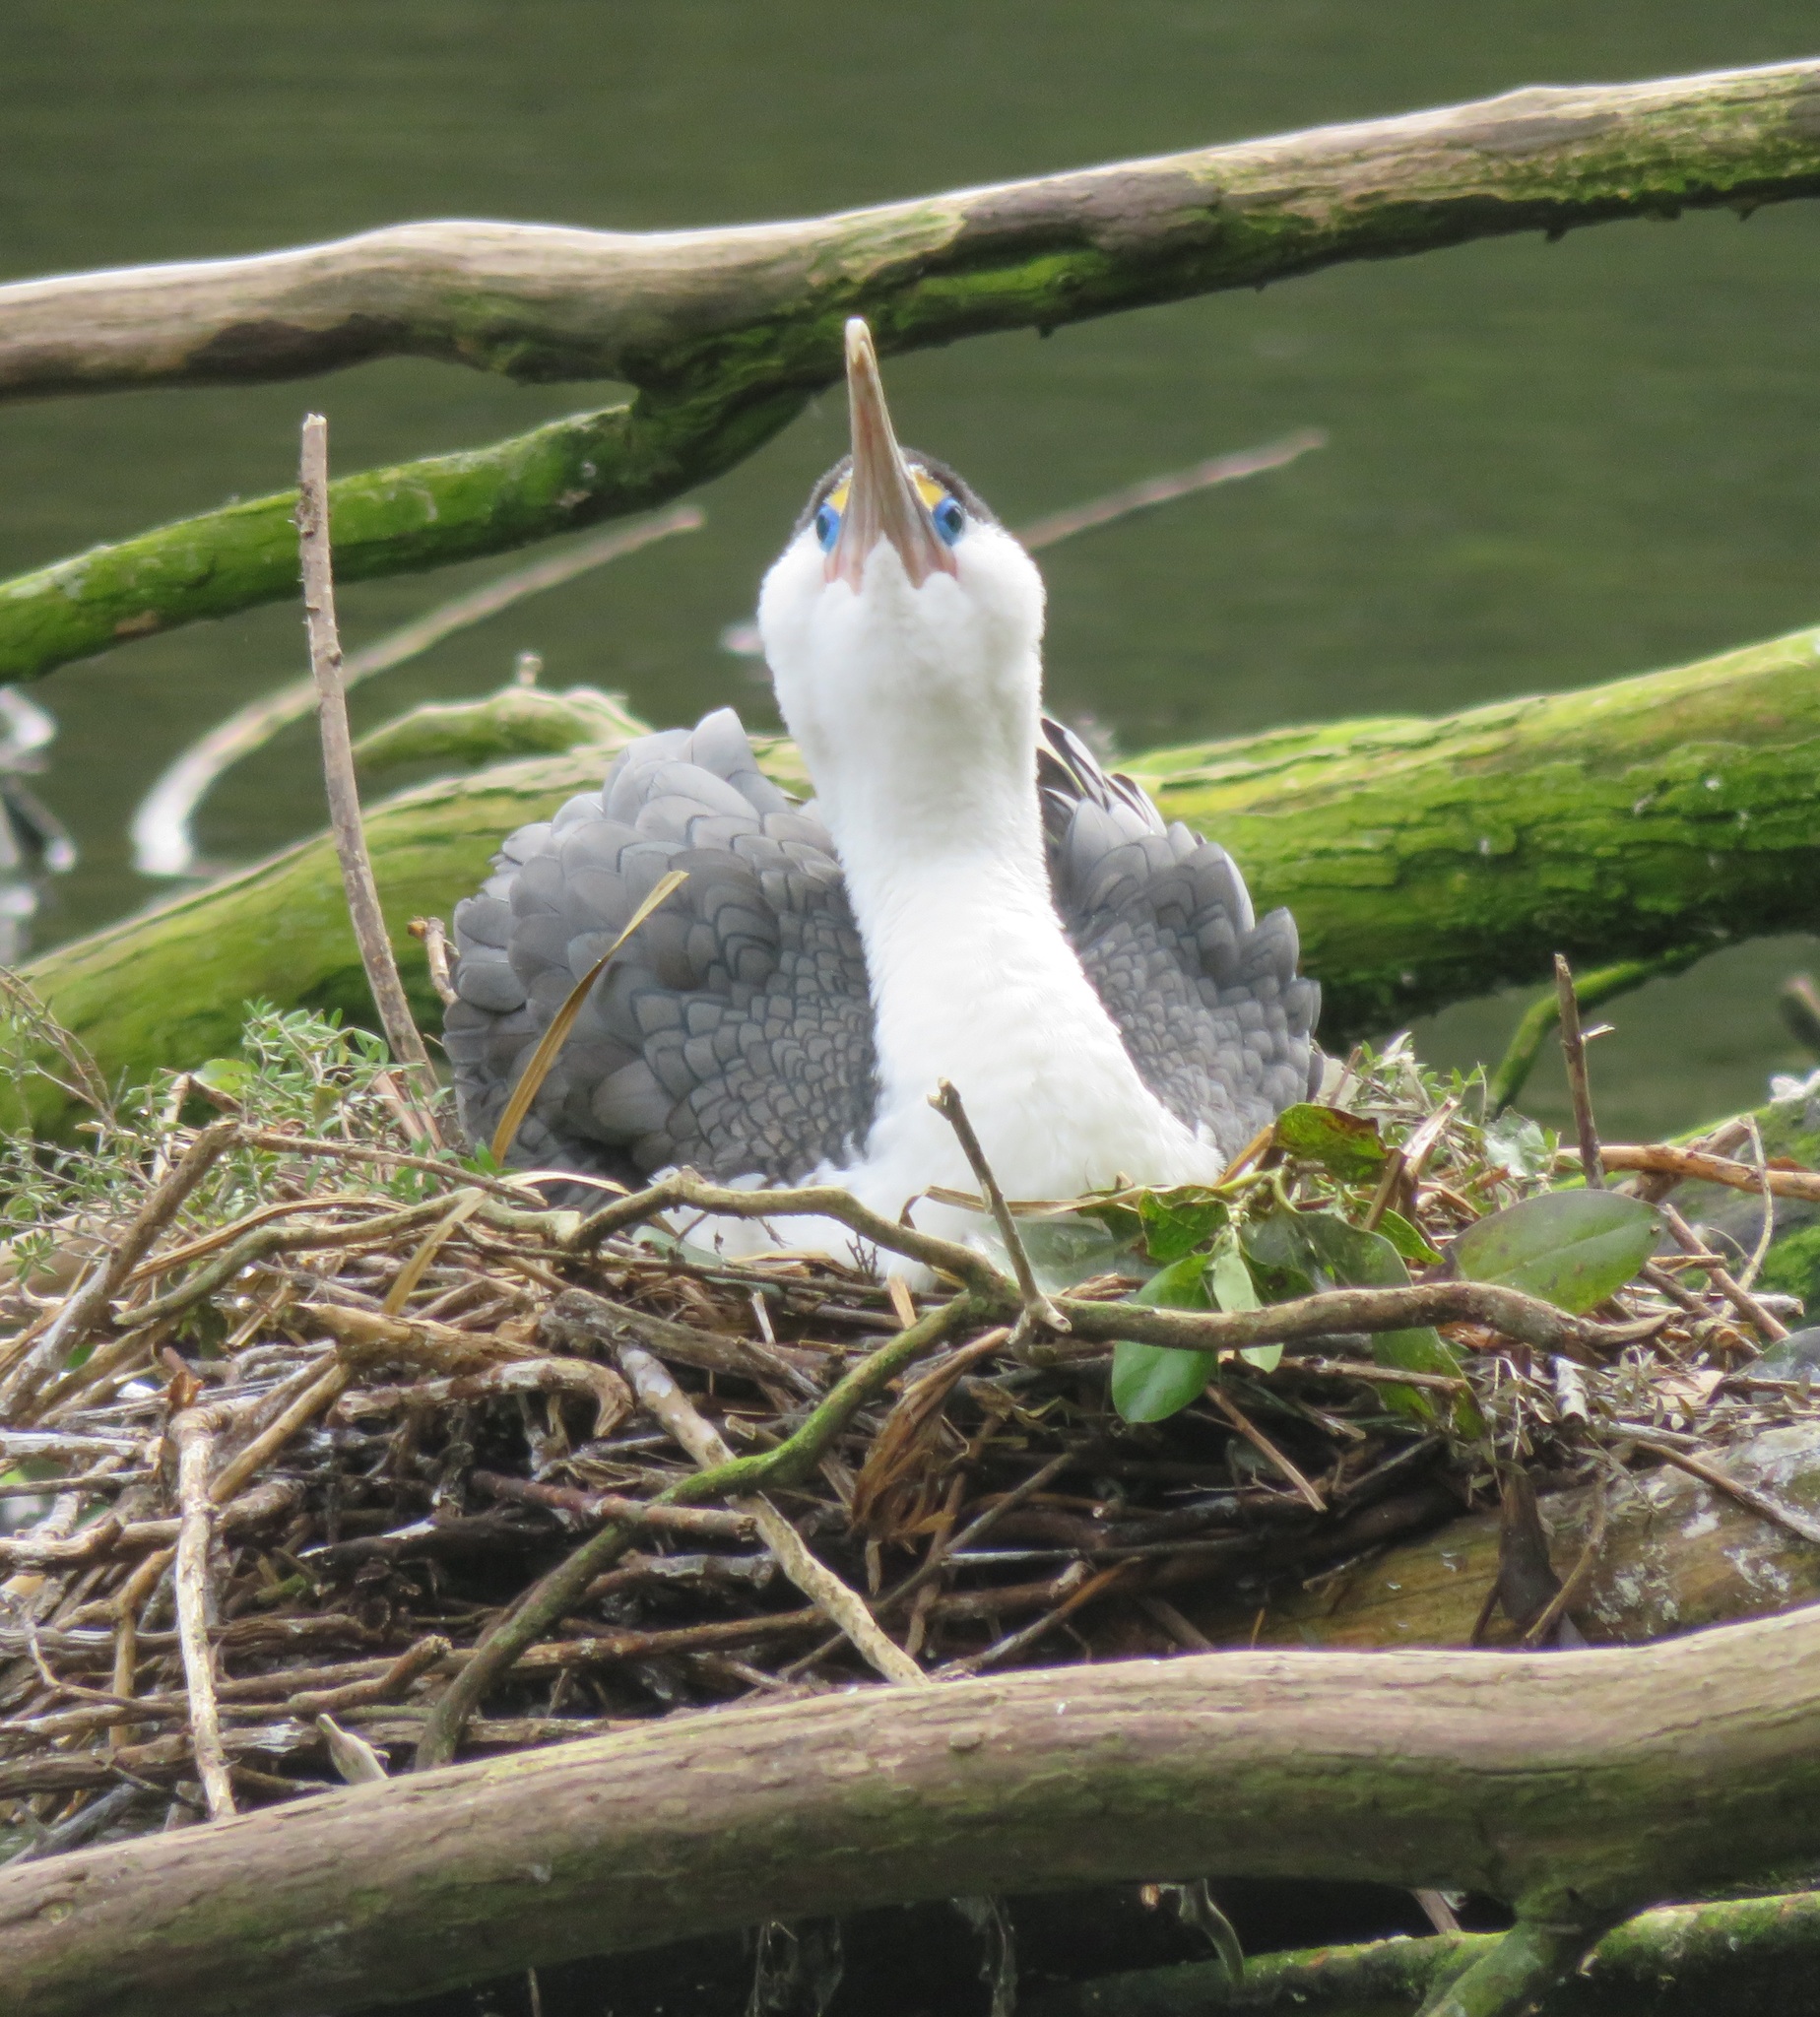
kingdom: Animalia
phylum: Chordata
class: Aves
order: Suliformes
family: Phalacrocoracidae
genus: Phalacrocorax
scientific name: Phalacrocorax varius
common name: Pied cormorant
